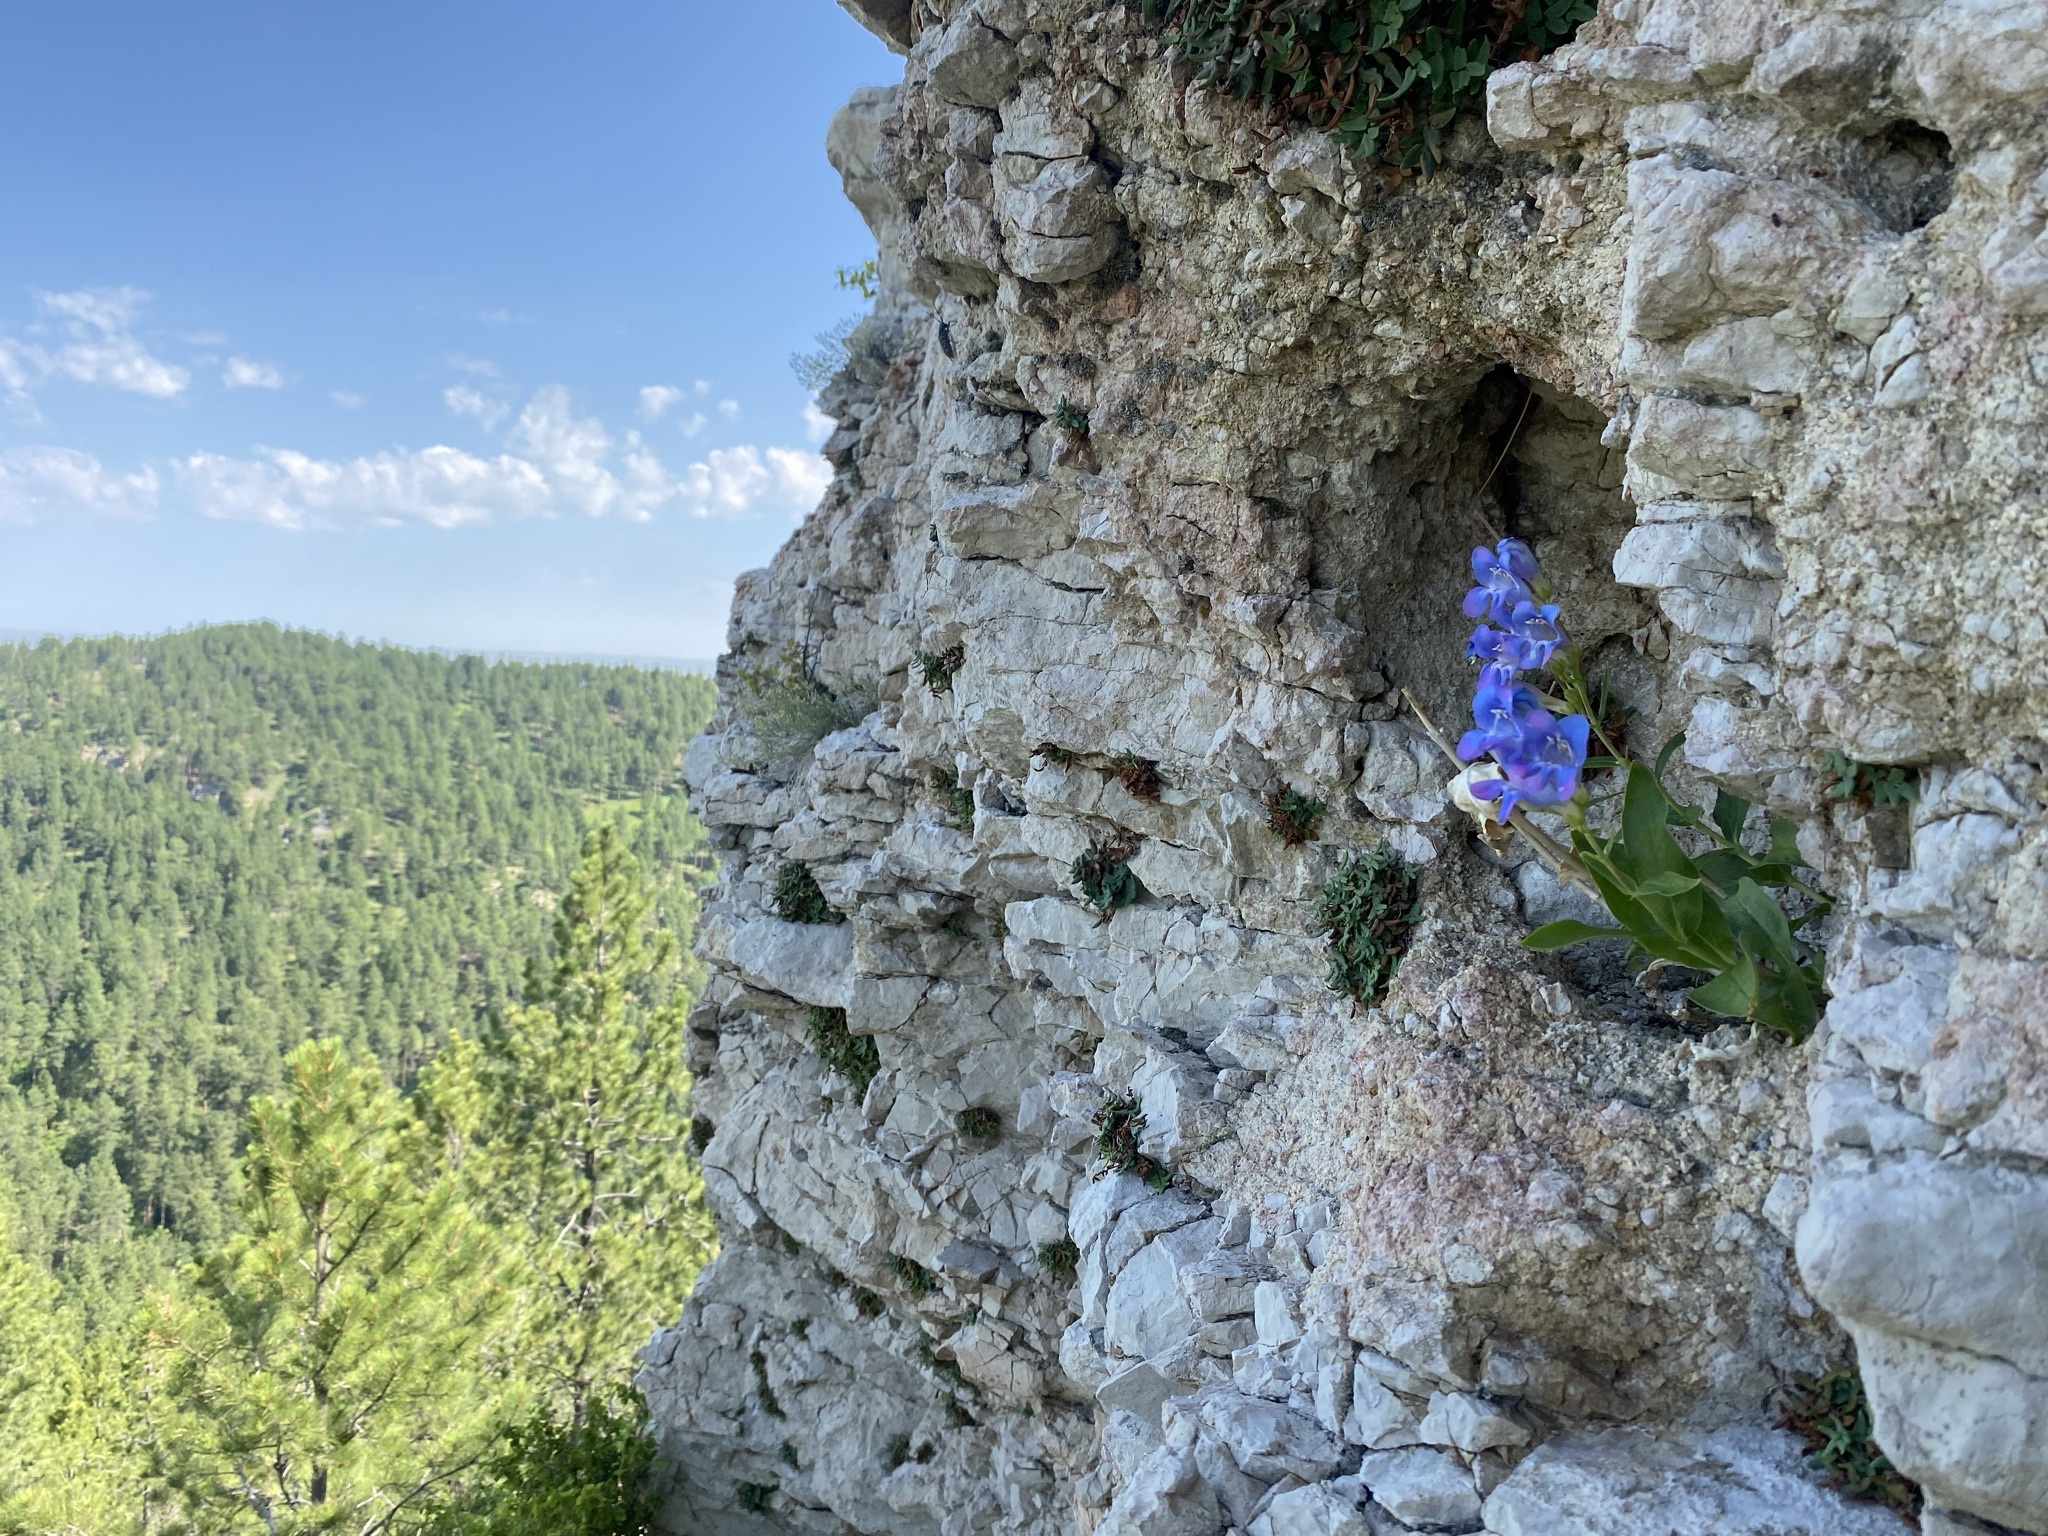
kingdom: Plantae
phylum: Tracheophyta
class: Magnoliopsida
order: Lamiales
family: Plantaginaceae
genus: Penstemon
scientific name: Penstemon glaber
